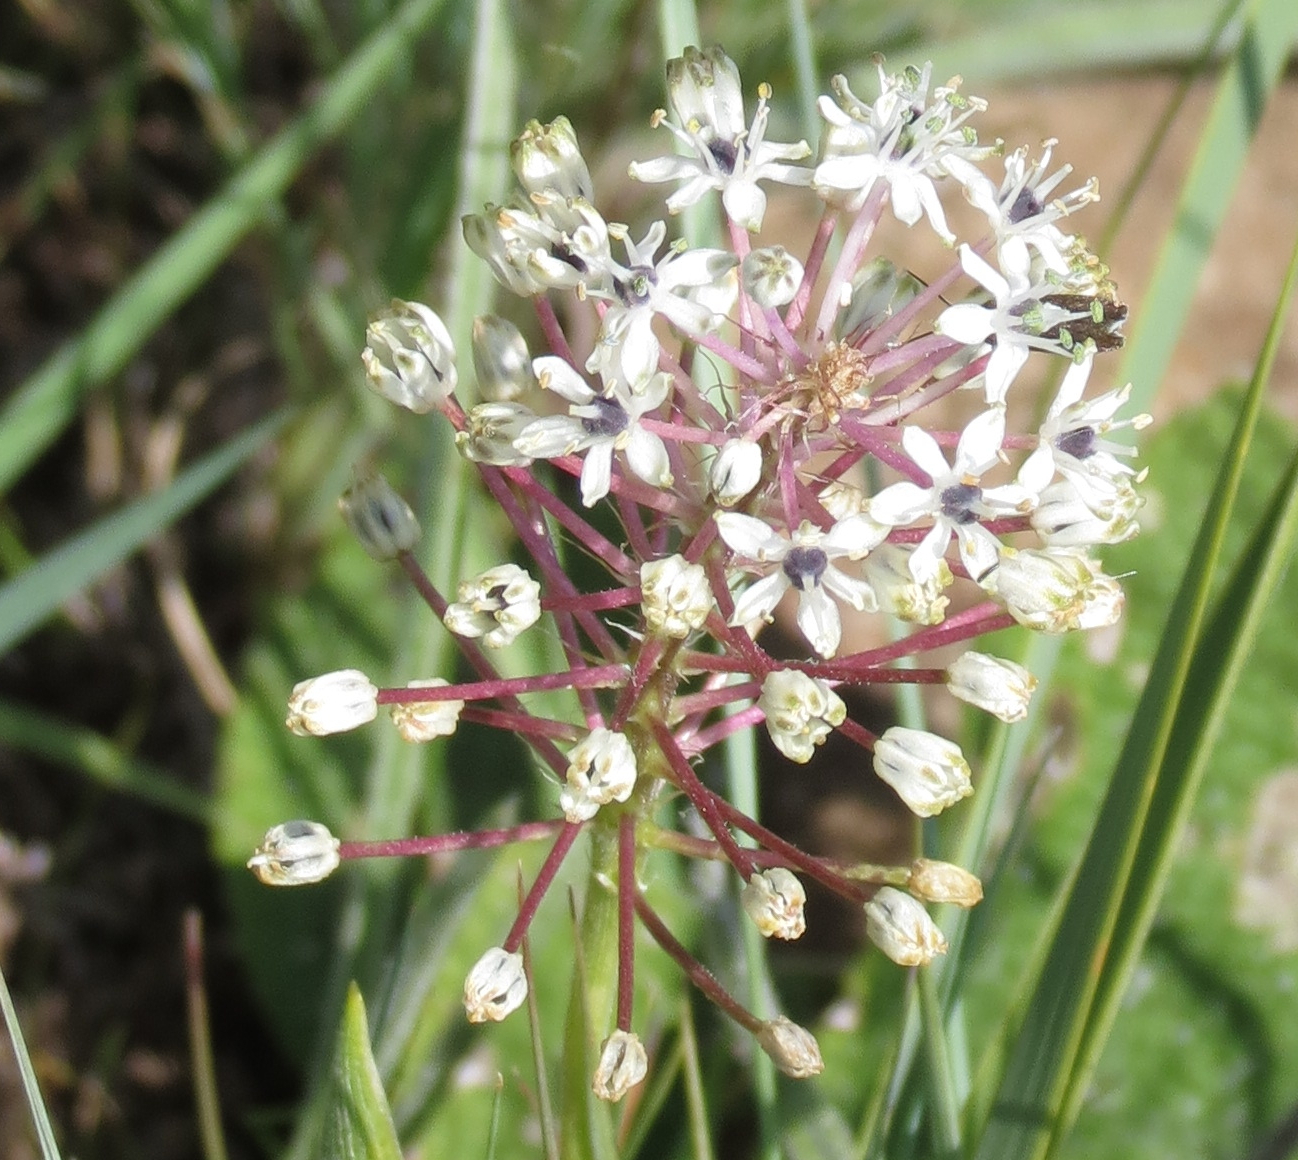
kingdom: Plantae
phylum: Tracheophyta
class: Liliopsida
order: Asparagales
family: Asparagaceae
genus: Schizocarphus
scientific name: Schizocarphus nervosus
